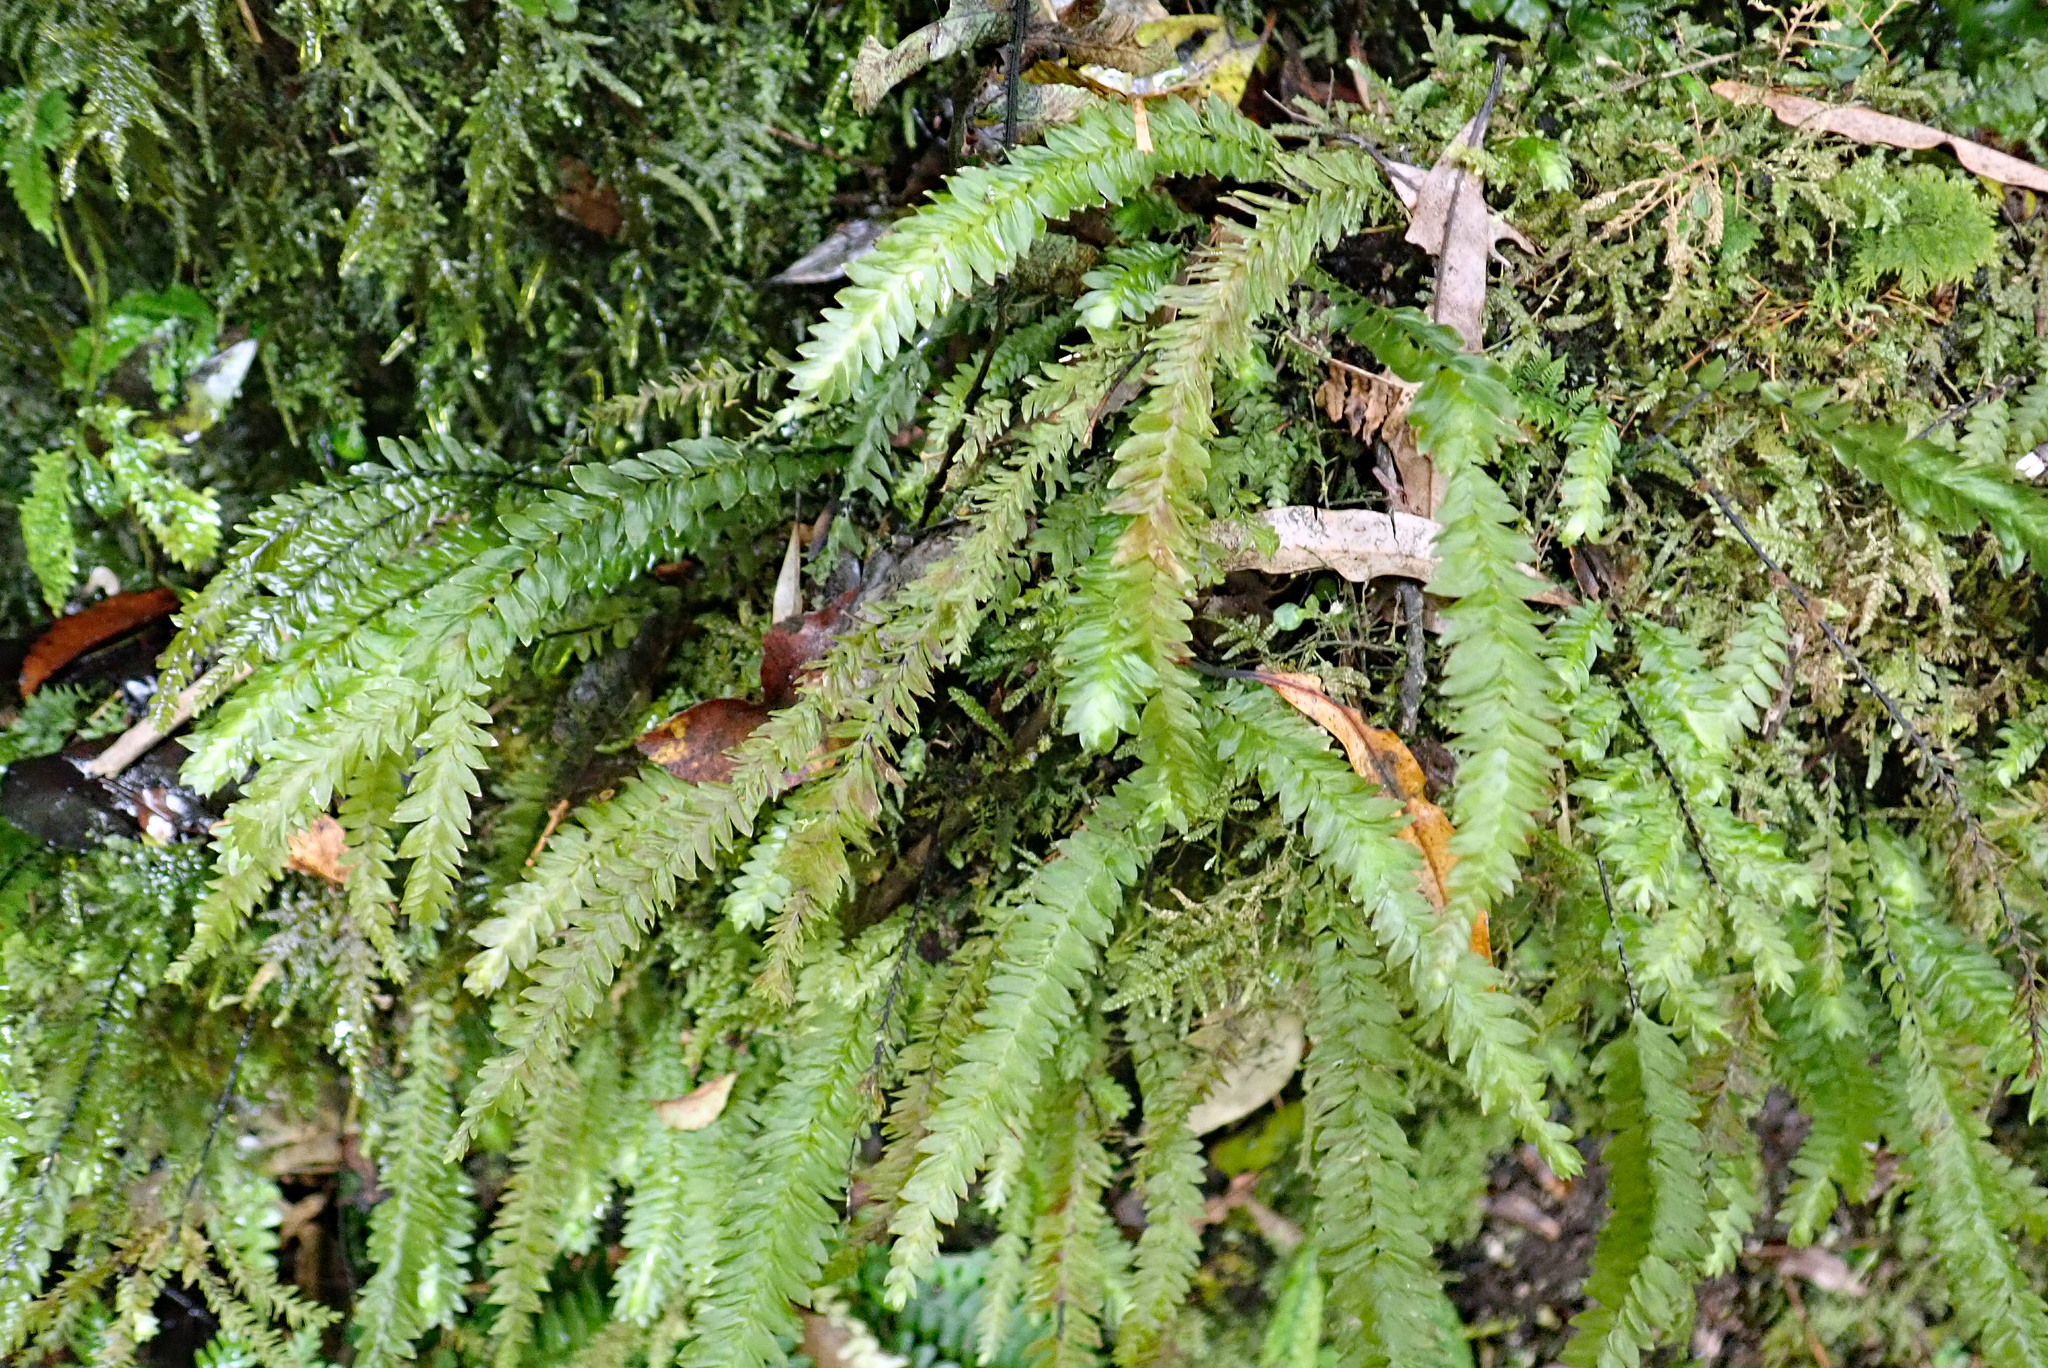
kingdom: Plantae
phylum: Bryophyta
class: Bryopsida
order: Hypopterygiales
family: Hypopterygiaceae
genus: Cyathophorum
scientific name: Cyathophorum bulbosum
